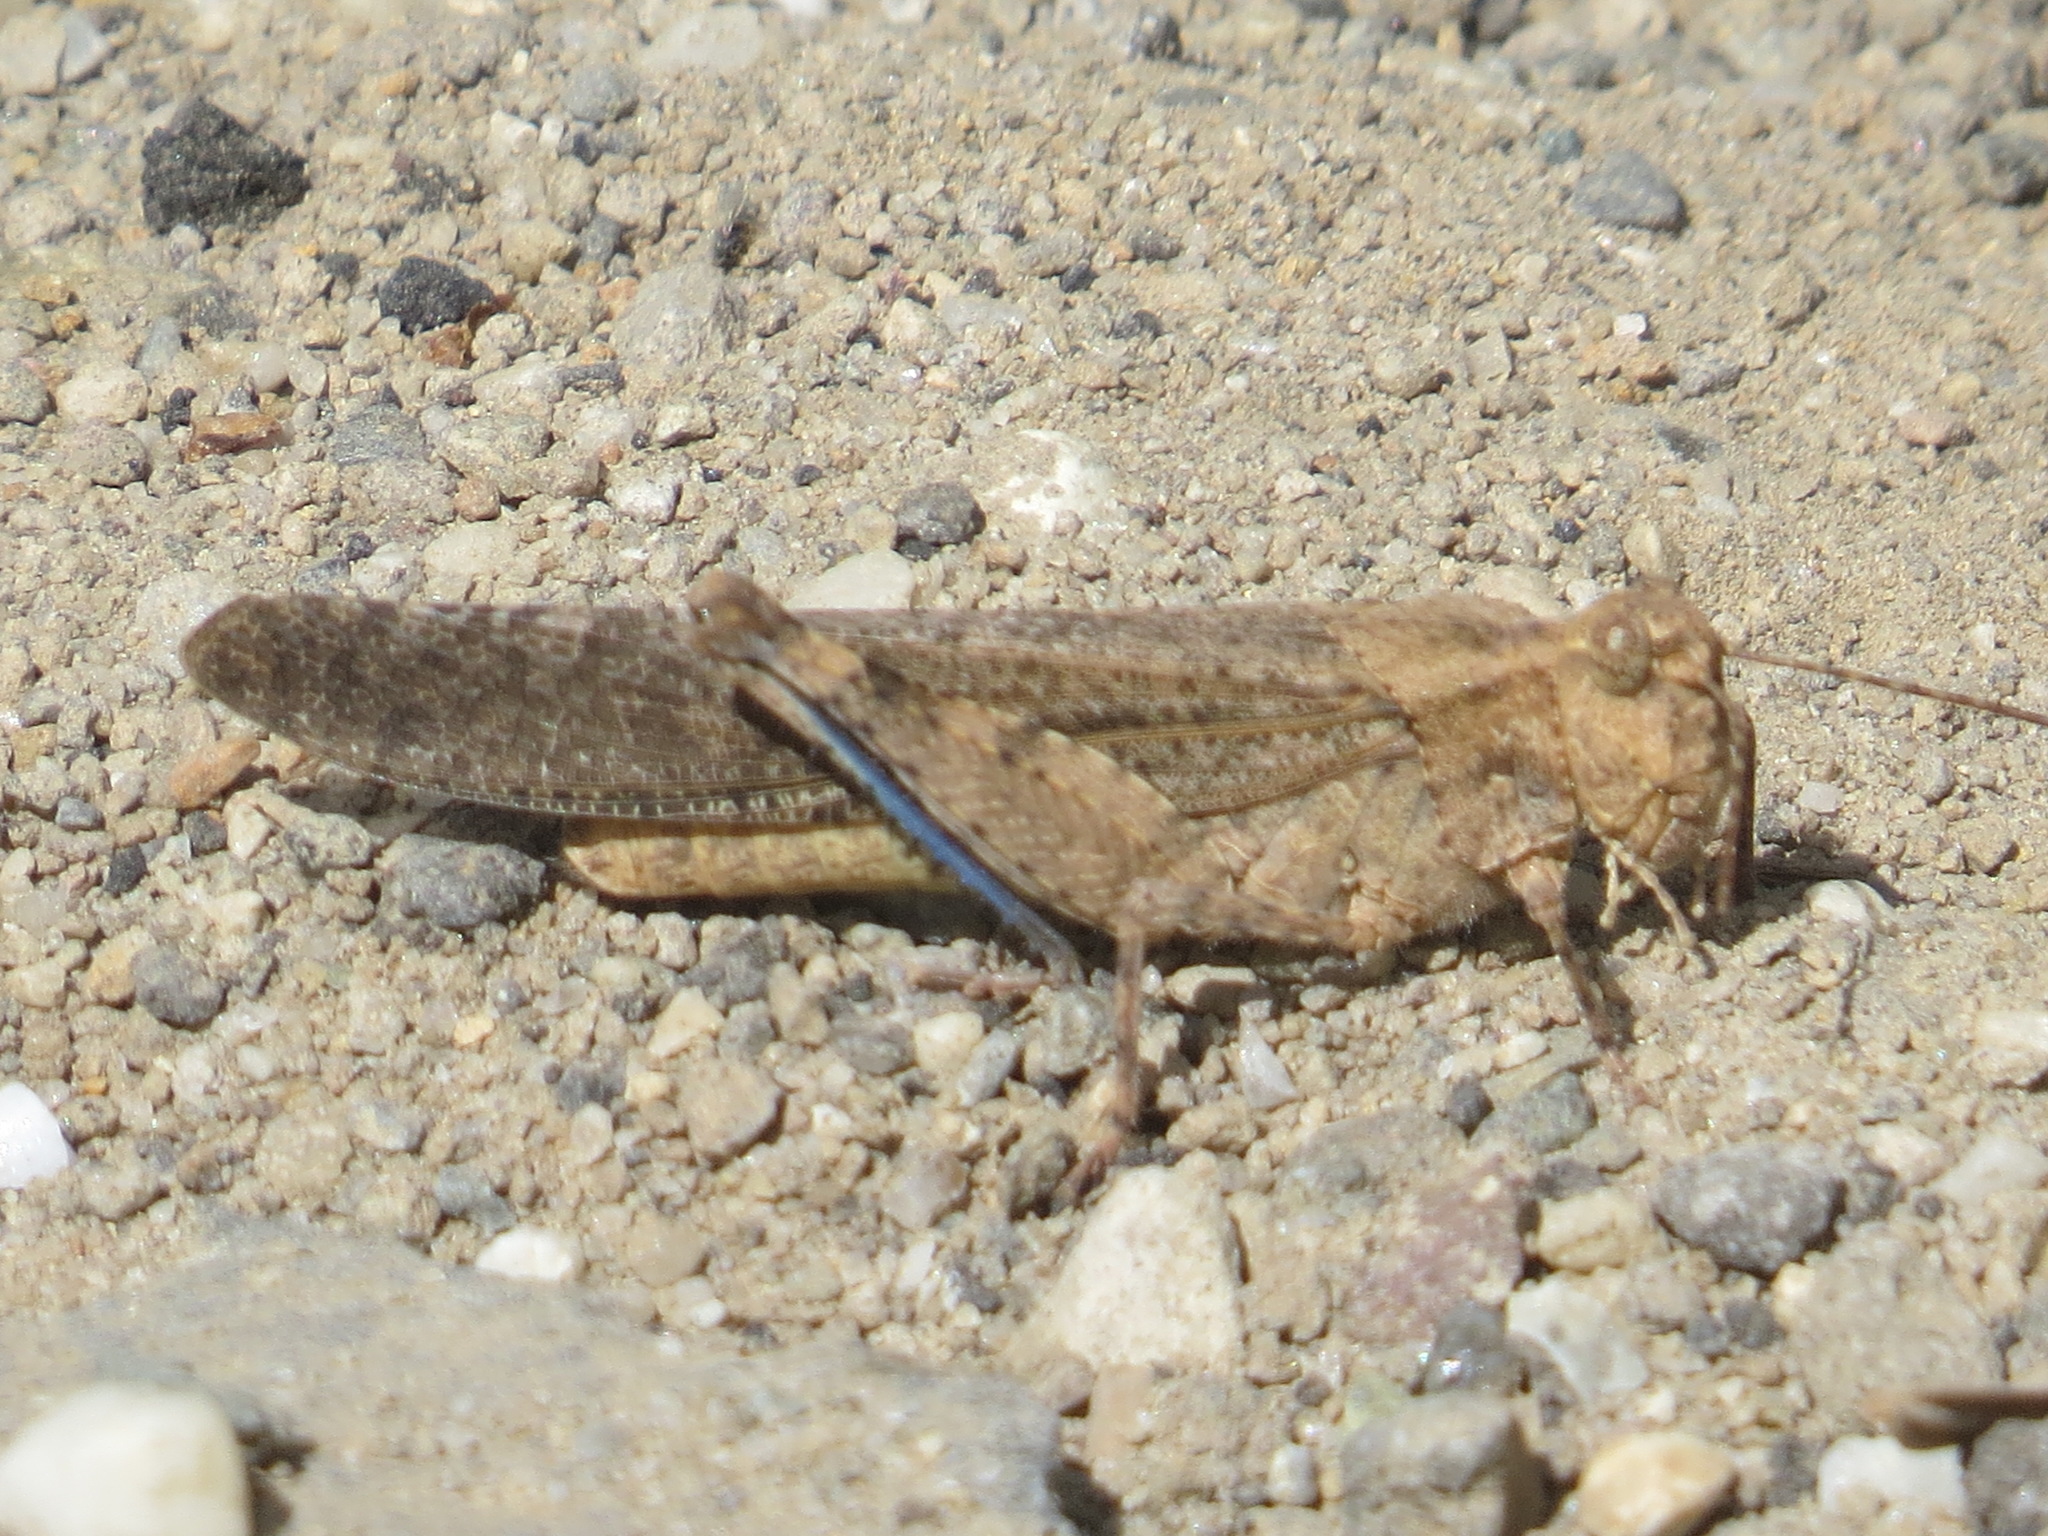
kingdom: Animalia
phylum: Arthropoda
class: Insecta
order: Orthoptera
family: Acrididae
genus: Trimerotropis
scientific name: Trimerotropis verruculata
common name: Crackling forest grasshopper
